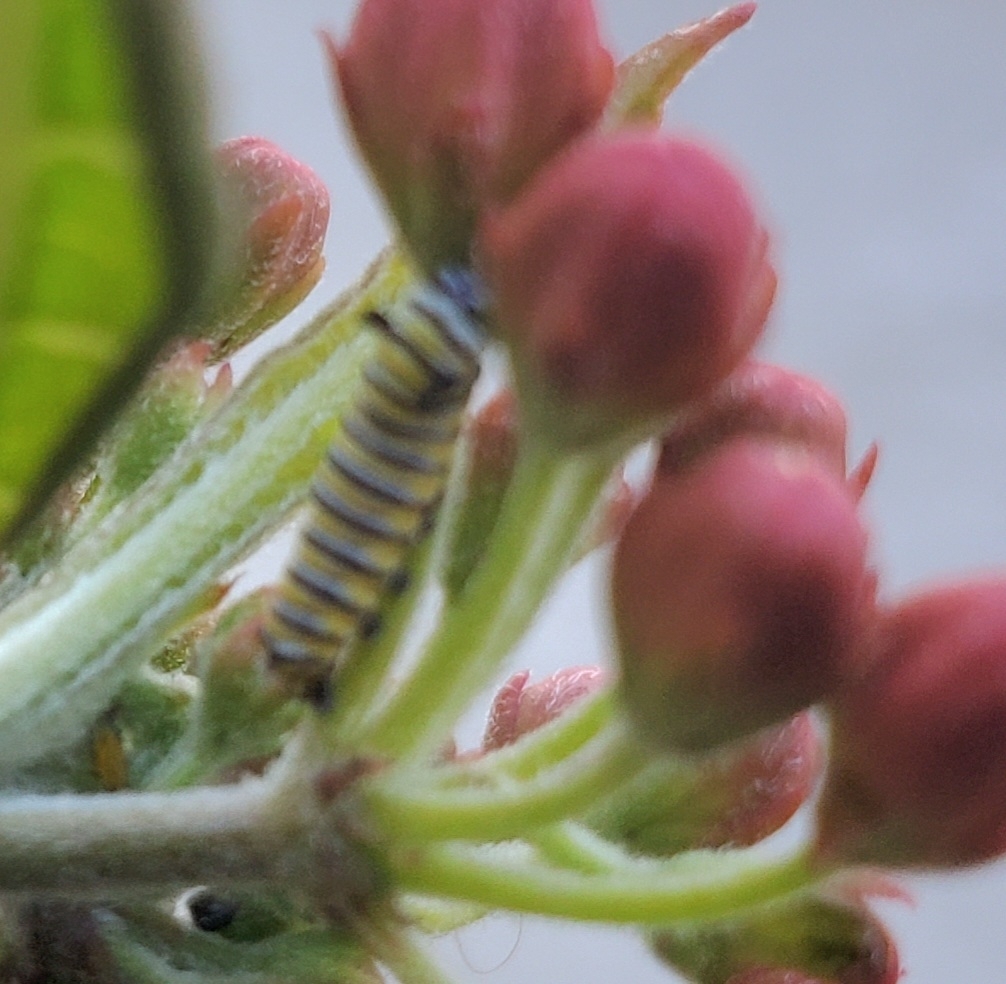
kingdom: Animalia
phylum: Arthropoda
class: Insecta
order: Lepidoptera
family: Nymphalidae
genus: Danaus
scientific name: Danaus plexippus
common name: Monarch
